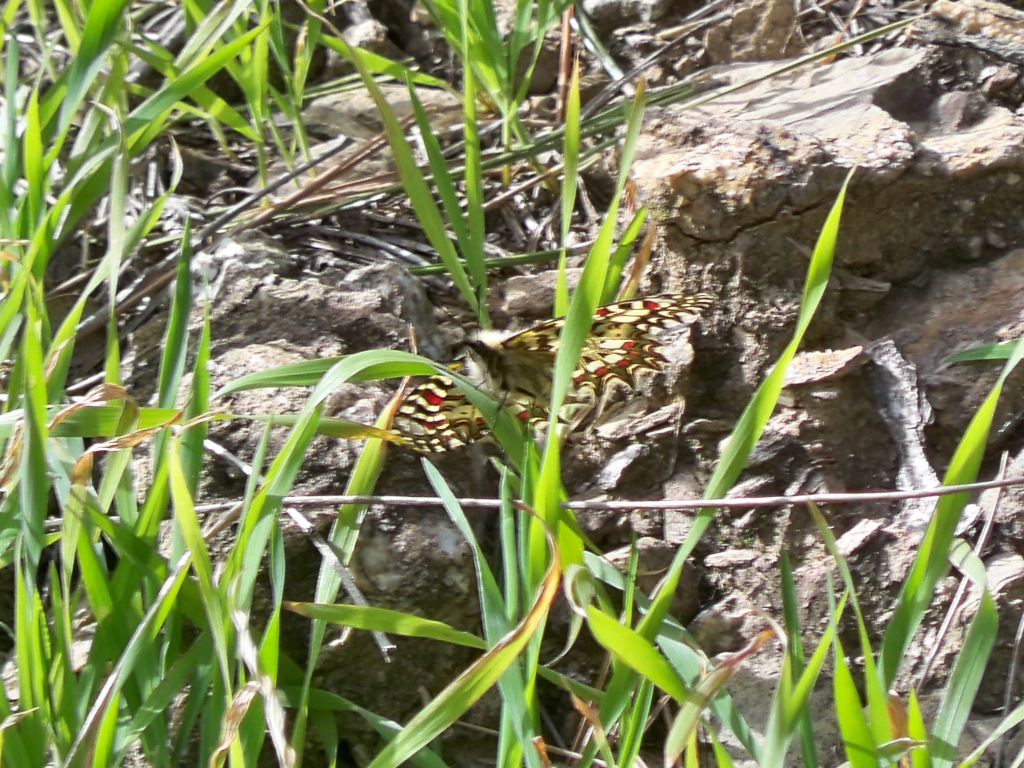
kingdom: Animalia
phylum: Arthropoda
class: Insecta
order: Lepidoptera
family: Papilionidae
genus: Zerynthia
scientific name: Zerynthia rumina
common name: Spanish festoon
